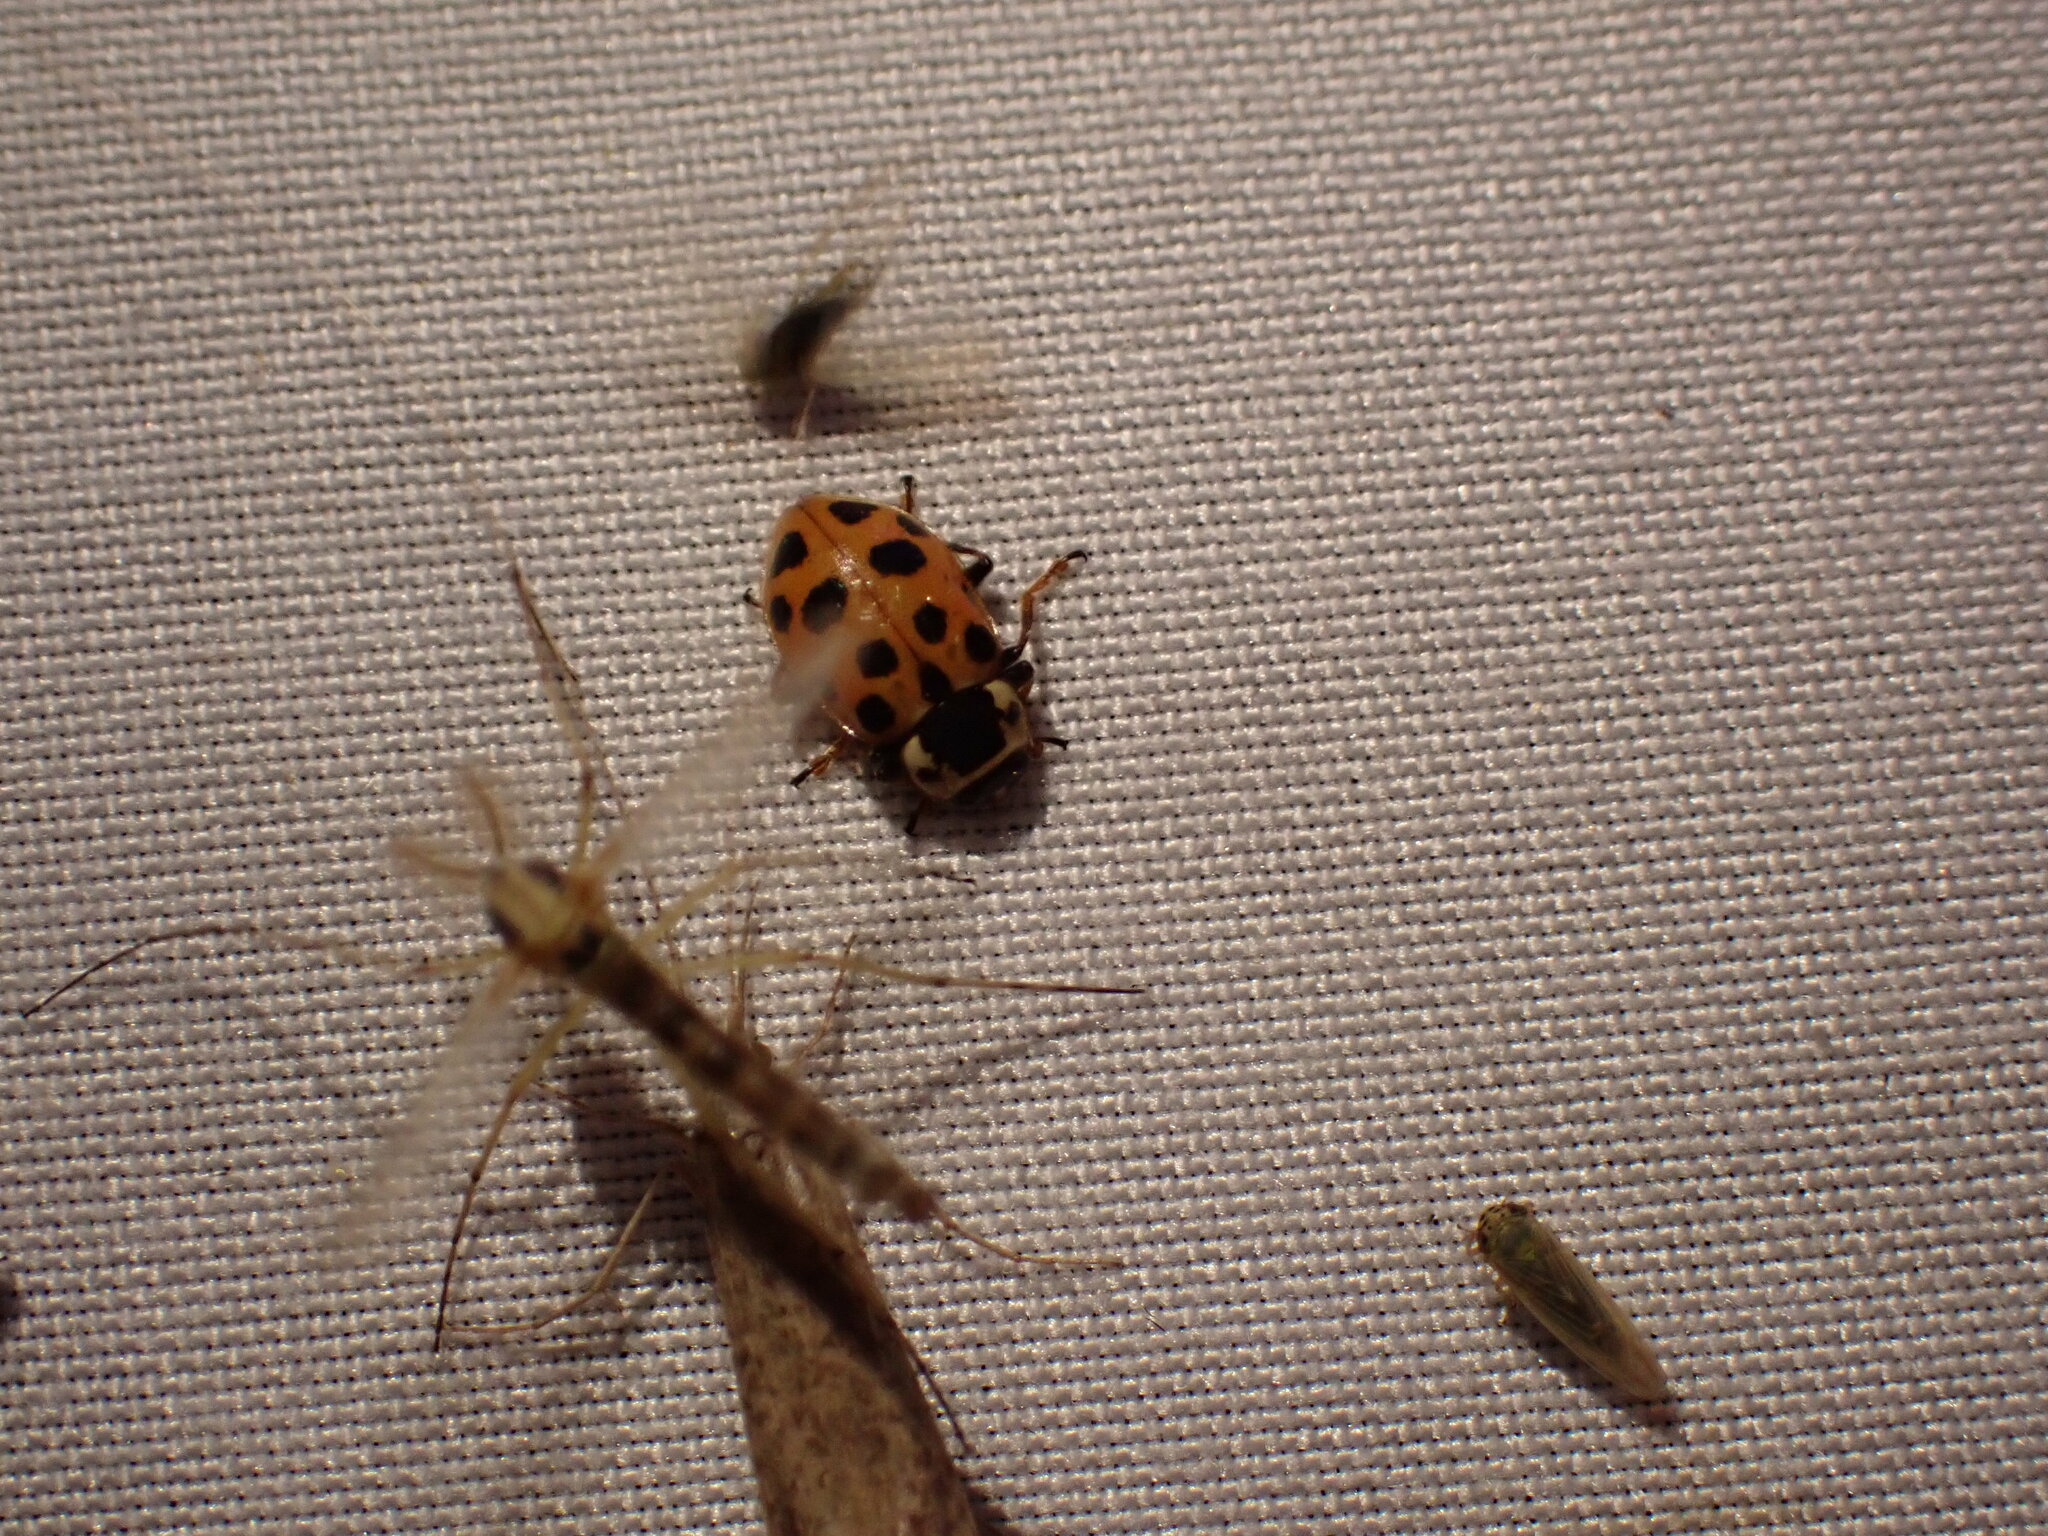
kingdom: Animalia
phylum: Arthropoda
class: Insecta
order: Coleoptera
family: Coccinellidae
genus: Hippodamia
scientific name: Hippodamia tredecimpunctata
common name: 13-spot ladybird
